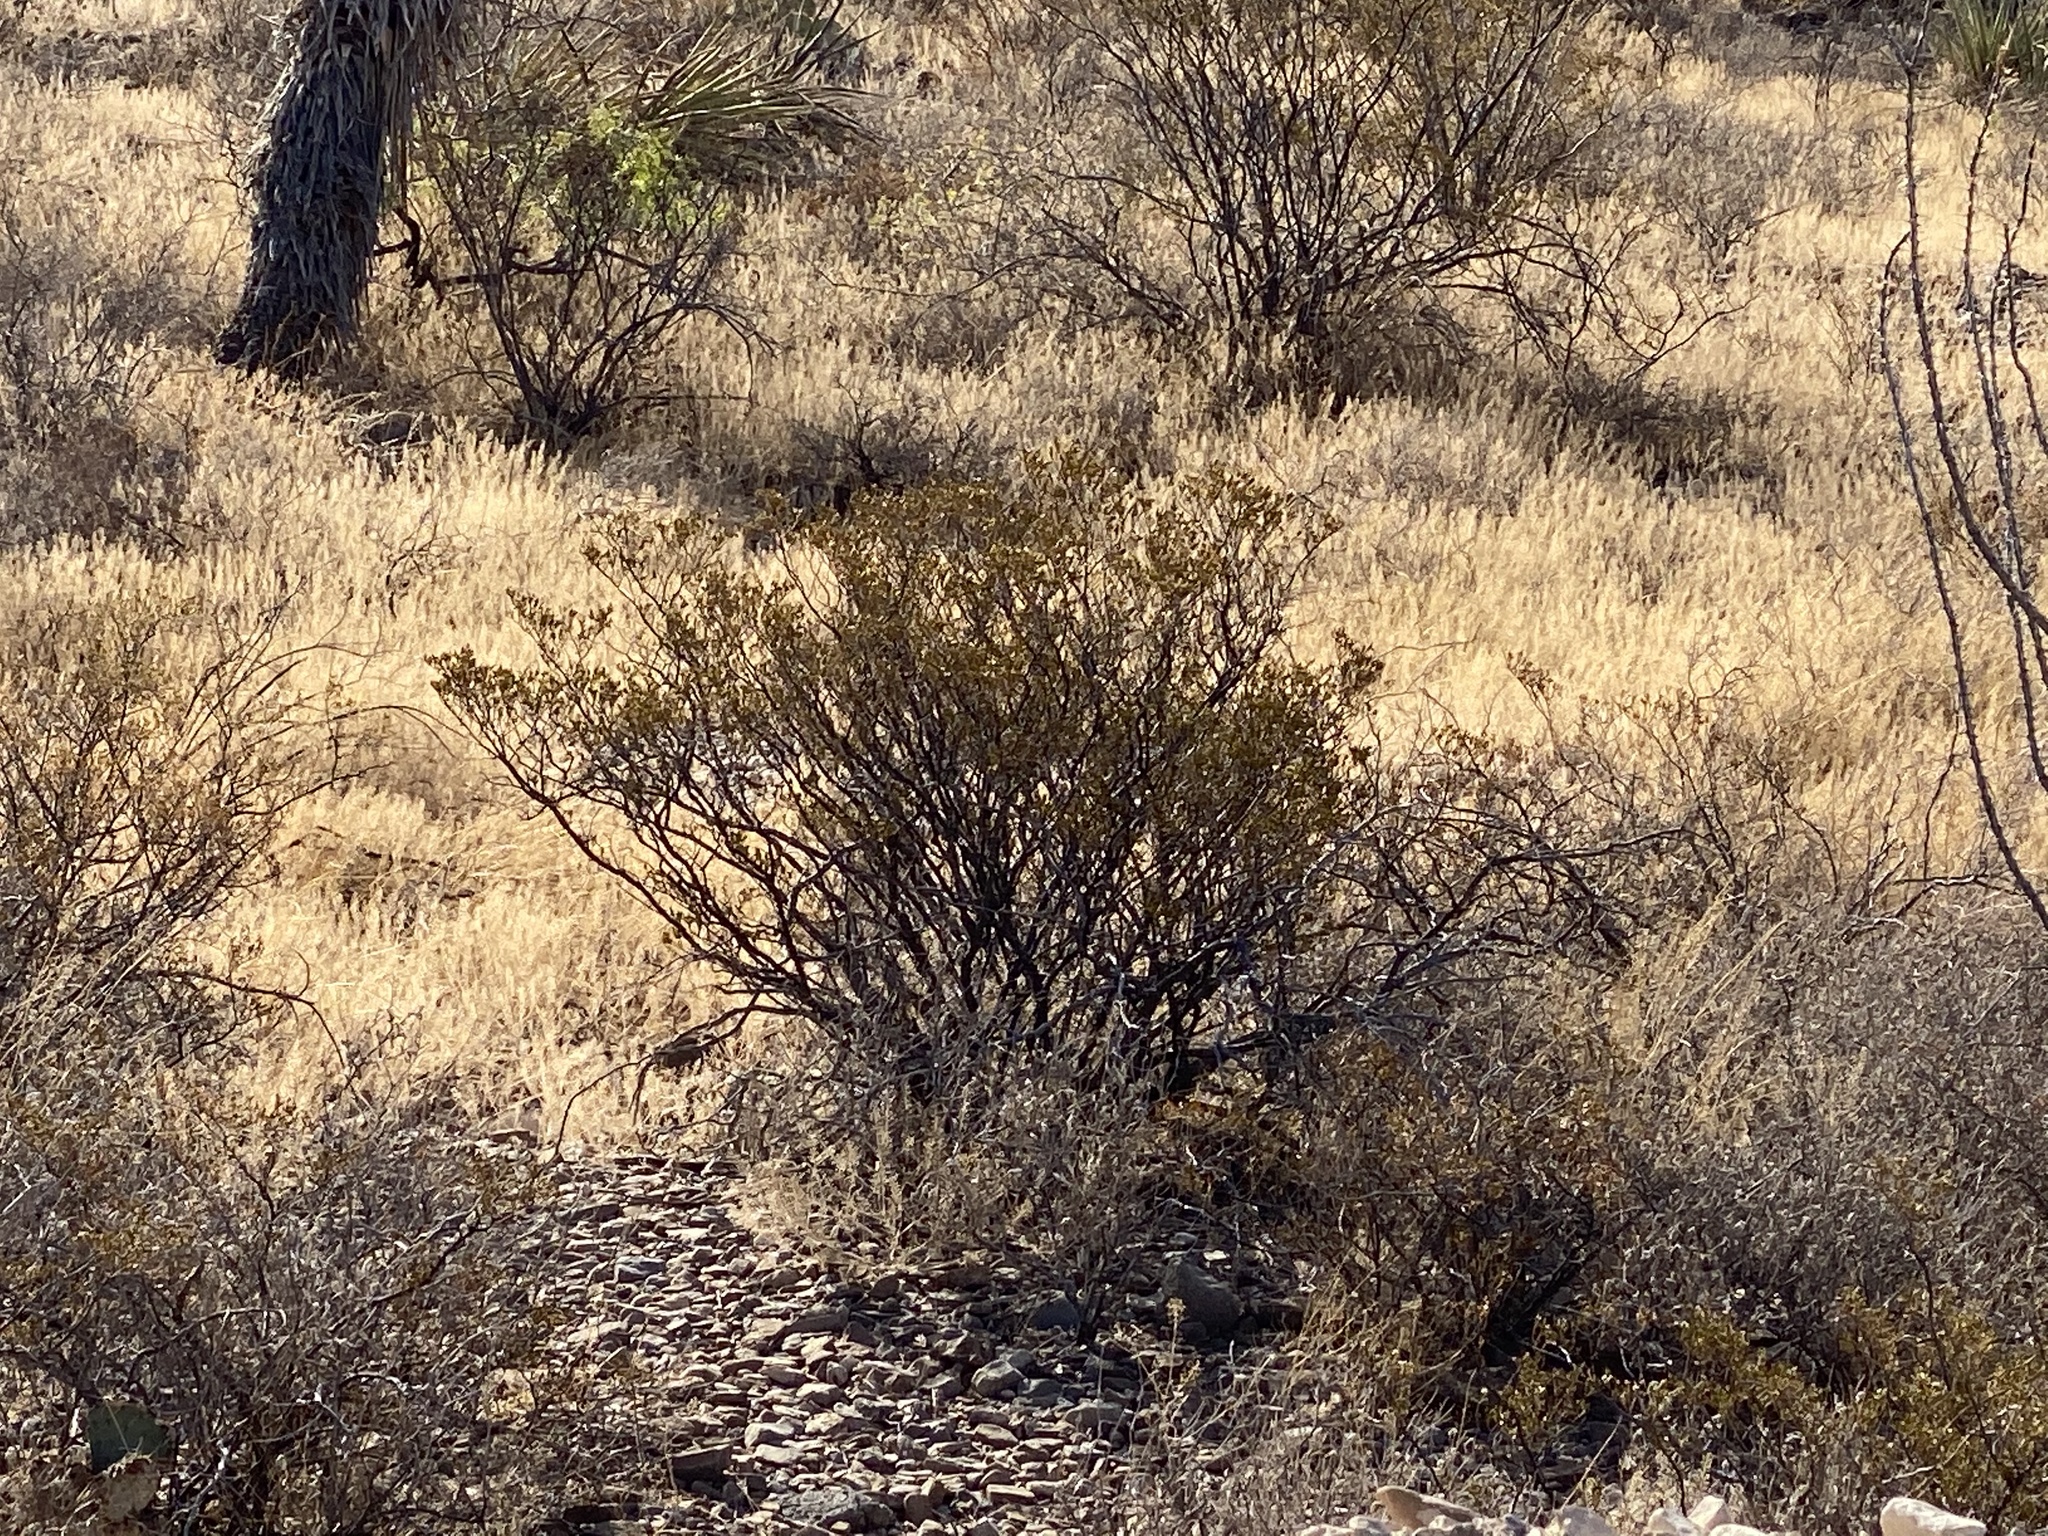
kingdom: Plantae
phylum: Tracheophyta
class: Magnoliopsida
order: Zygophyllales
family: Zygophyllaceae
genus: Larrea
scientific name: Larrea tridentata
